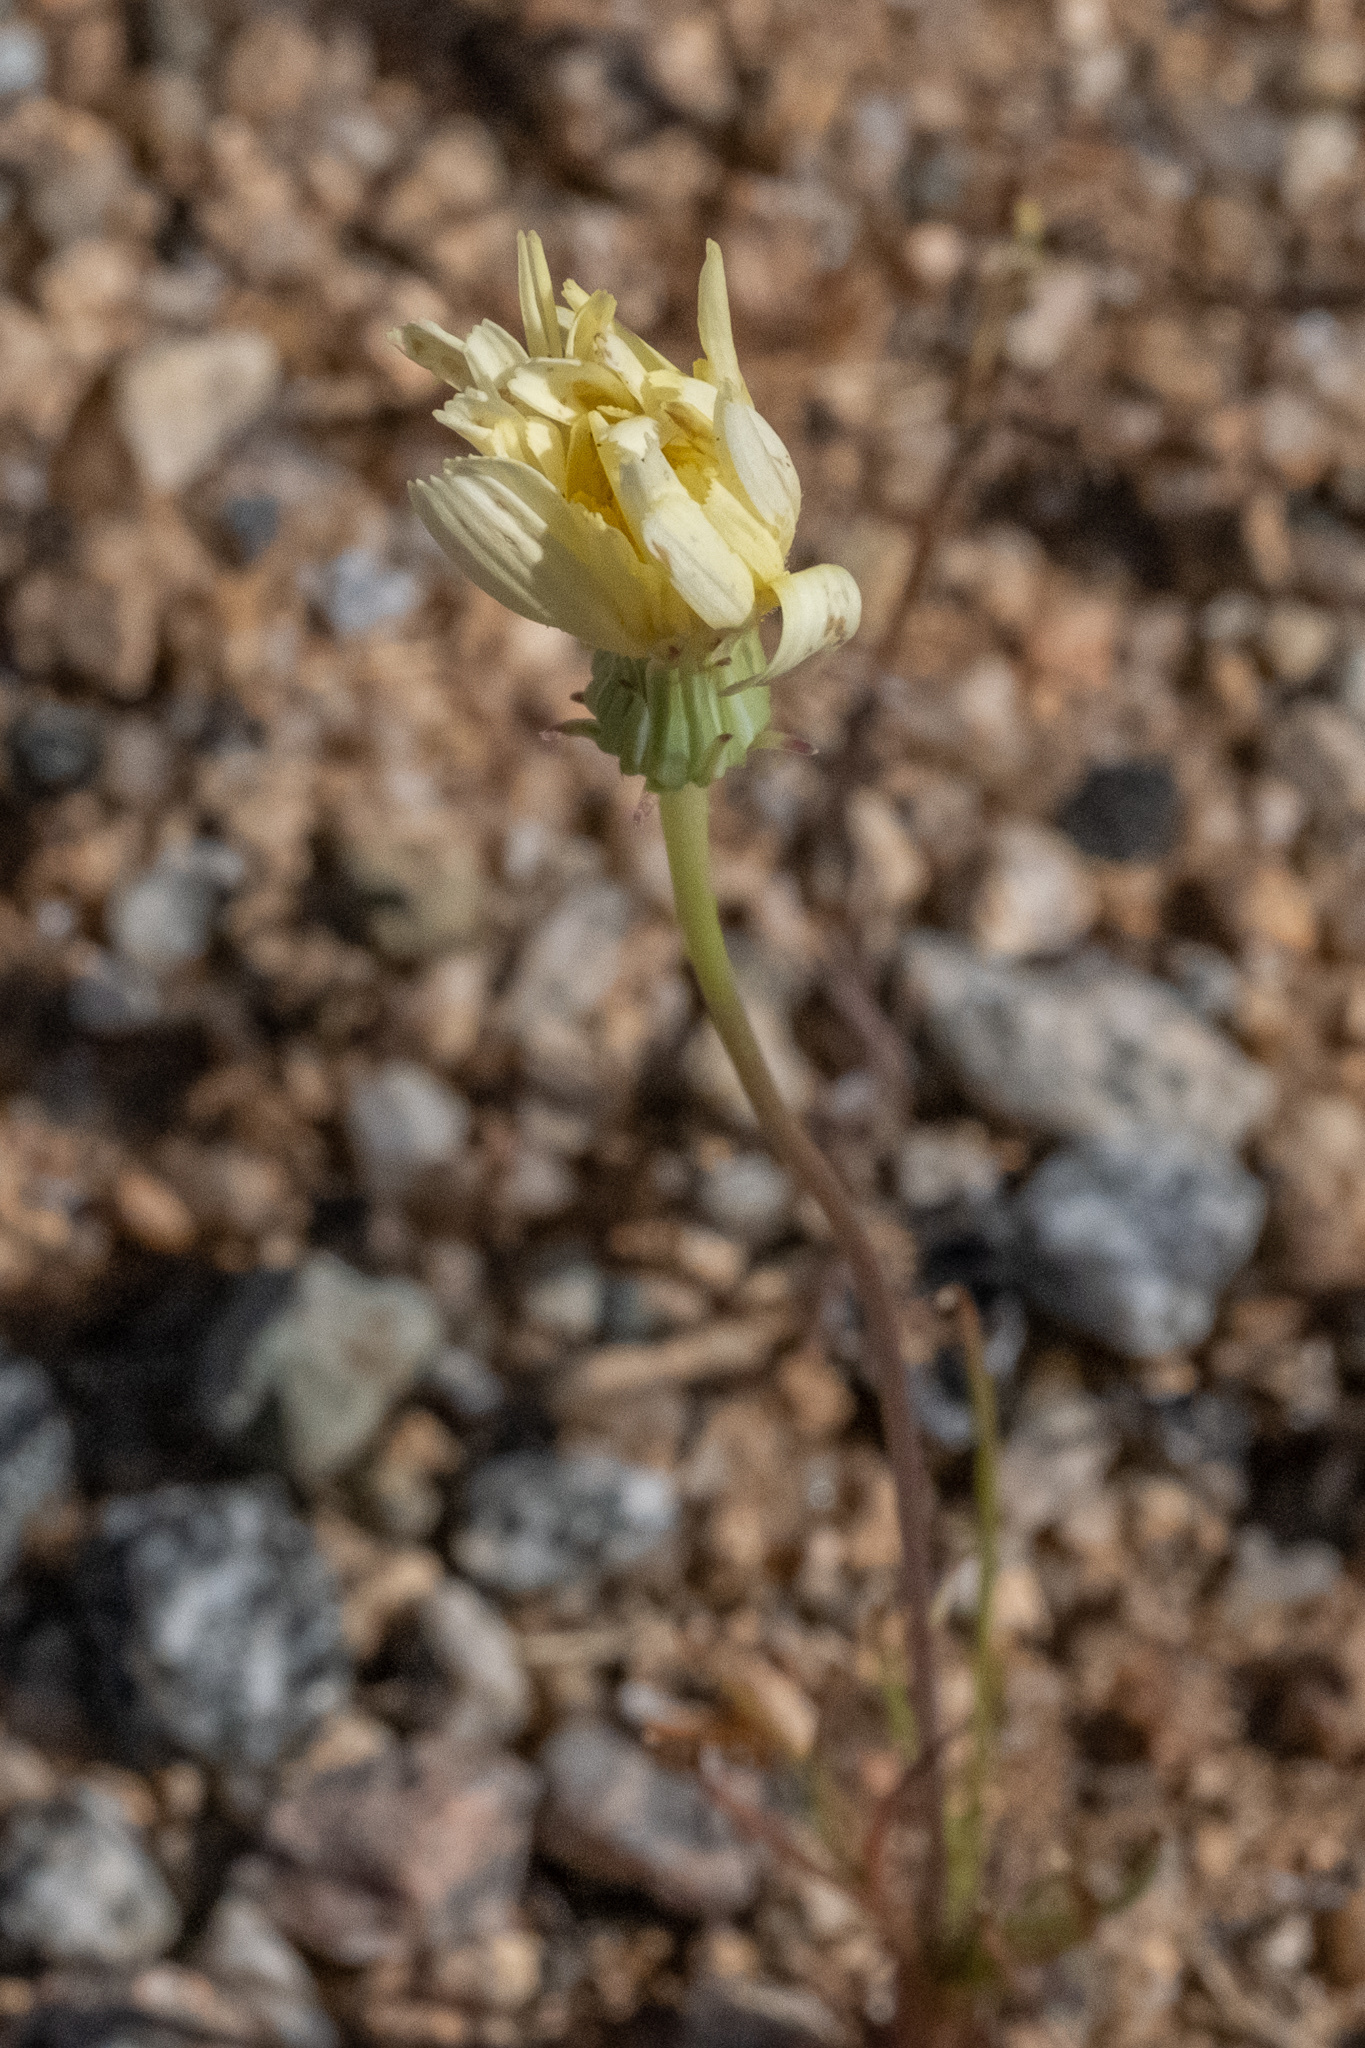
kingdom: Plantae
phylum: Tracheophyta
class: Magnoliopsida
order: Asterales
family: Asteraceae
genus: Malacothrix
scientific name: Malacothrix glabrata
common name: Smooth desert-dandelion
